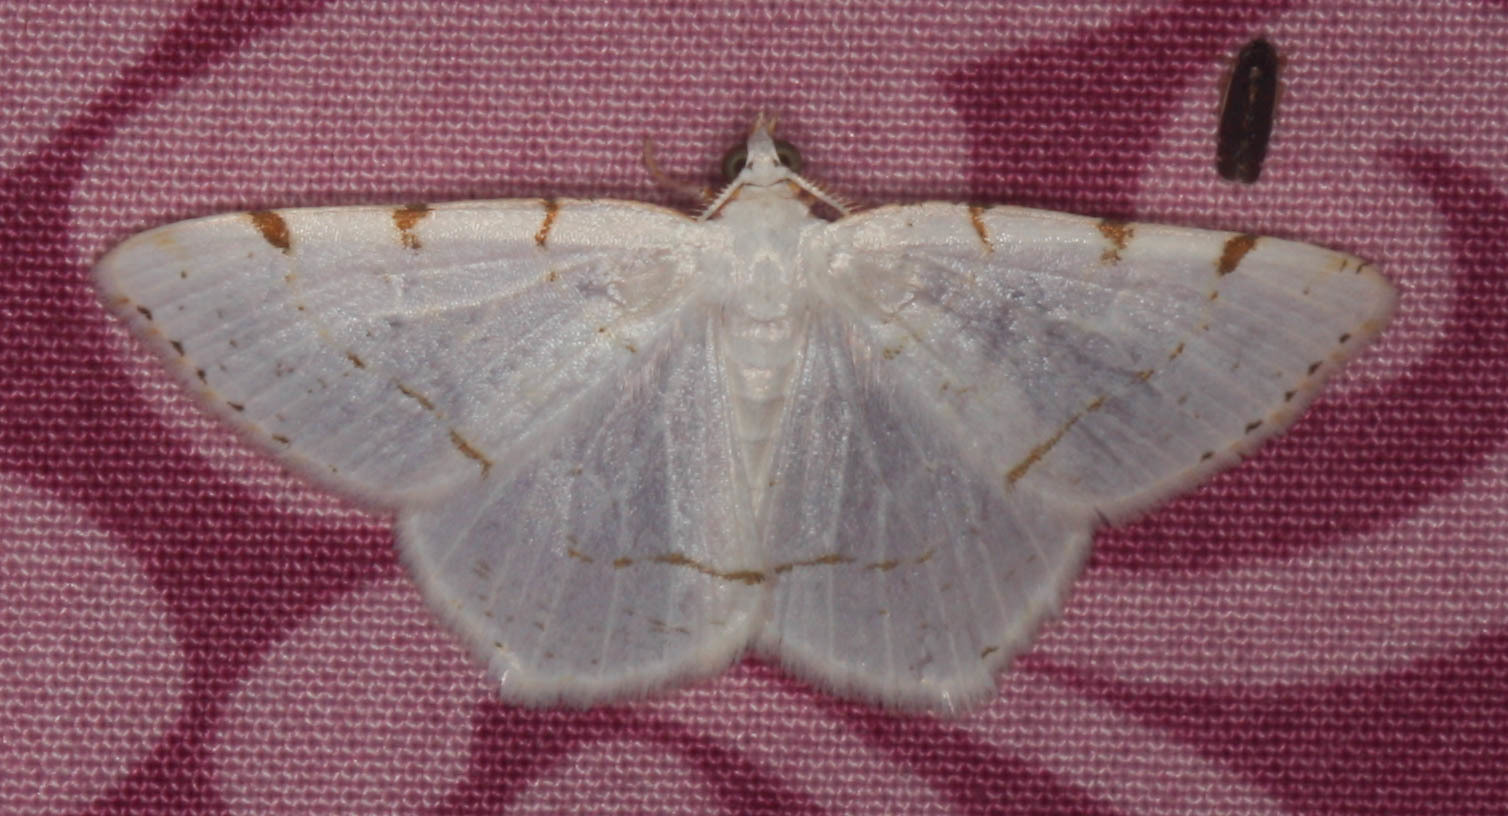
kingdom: Animalia
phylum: Arthropoda
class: Insecta
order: Lepidoptera
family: Geometridae
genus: Macaria
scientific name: Macaria pustularia
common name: Lesser maple spanworm moth
